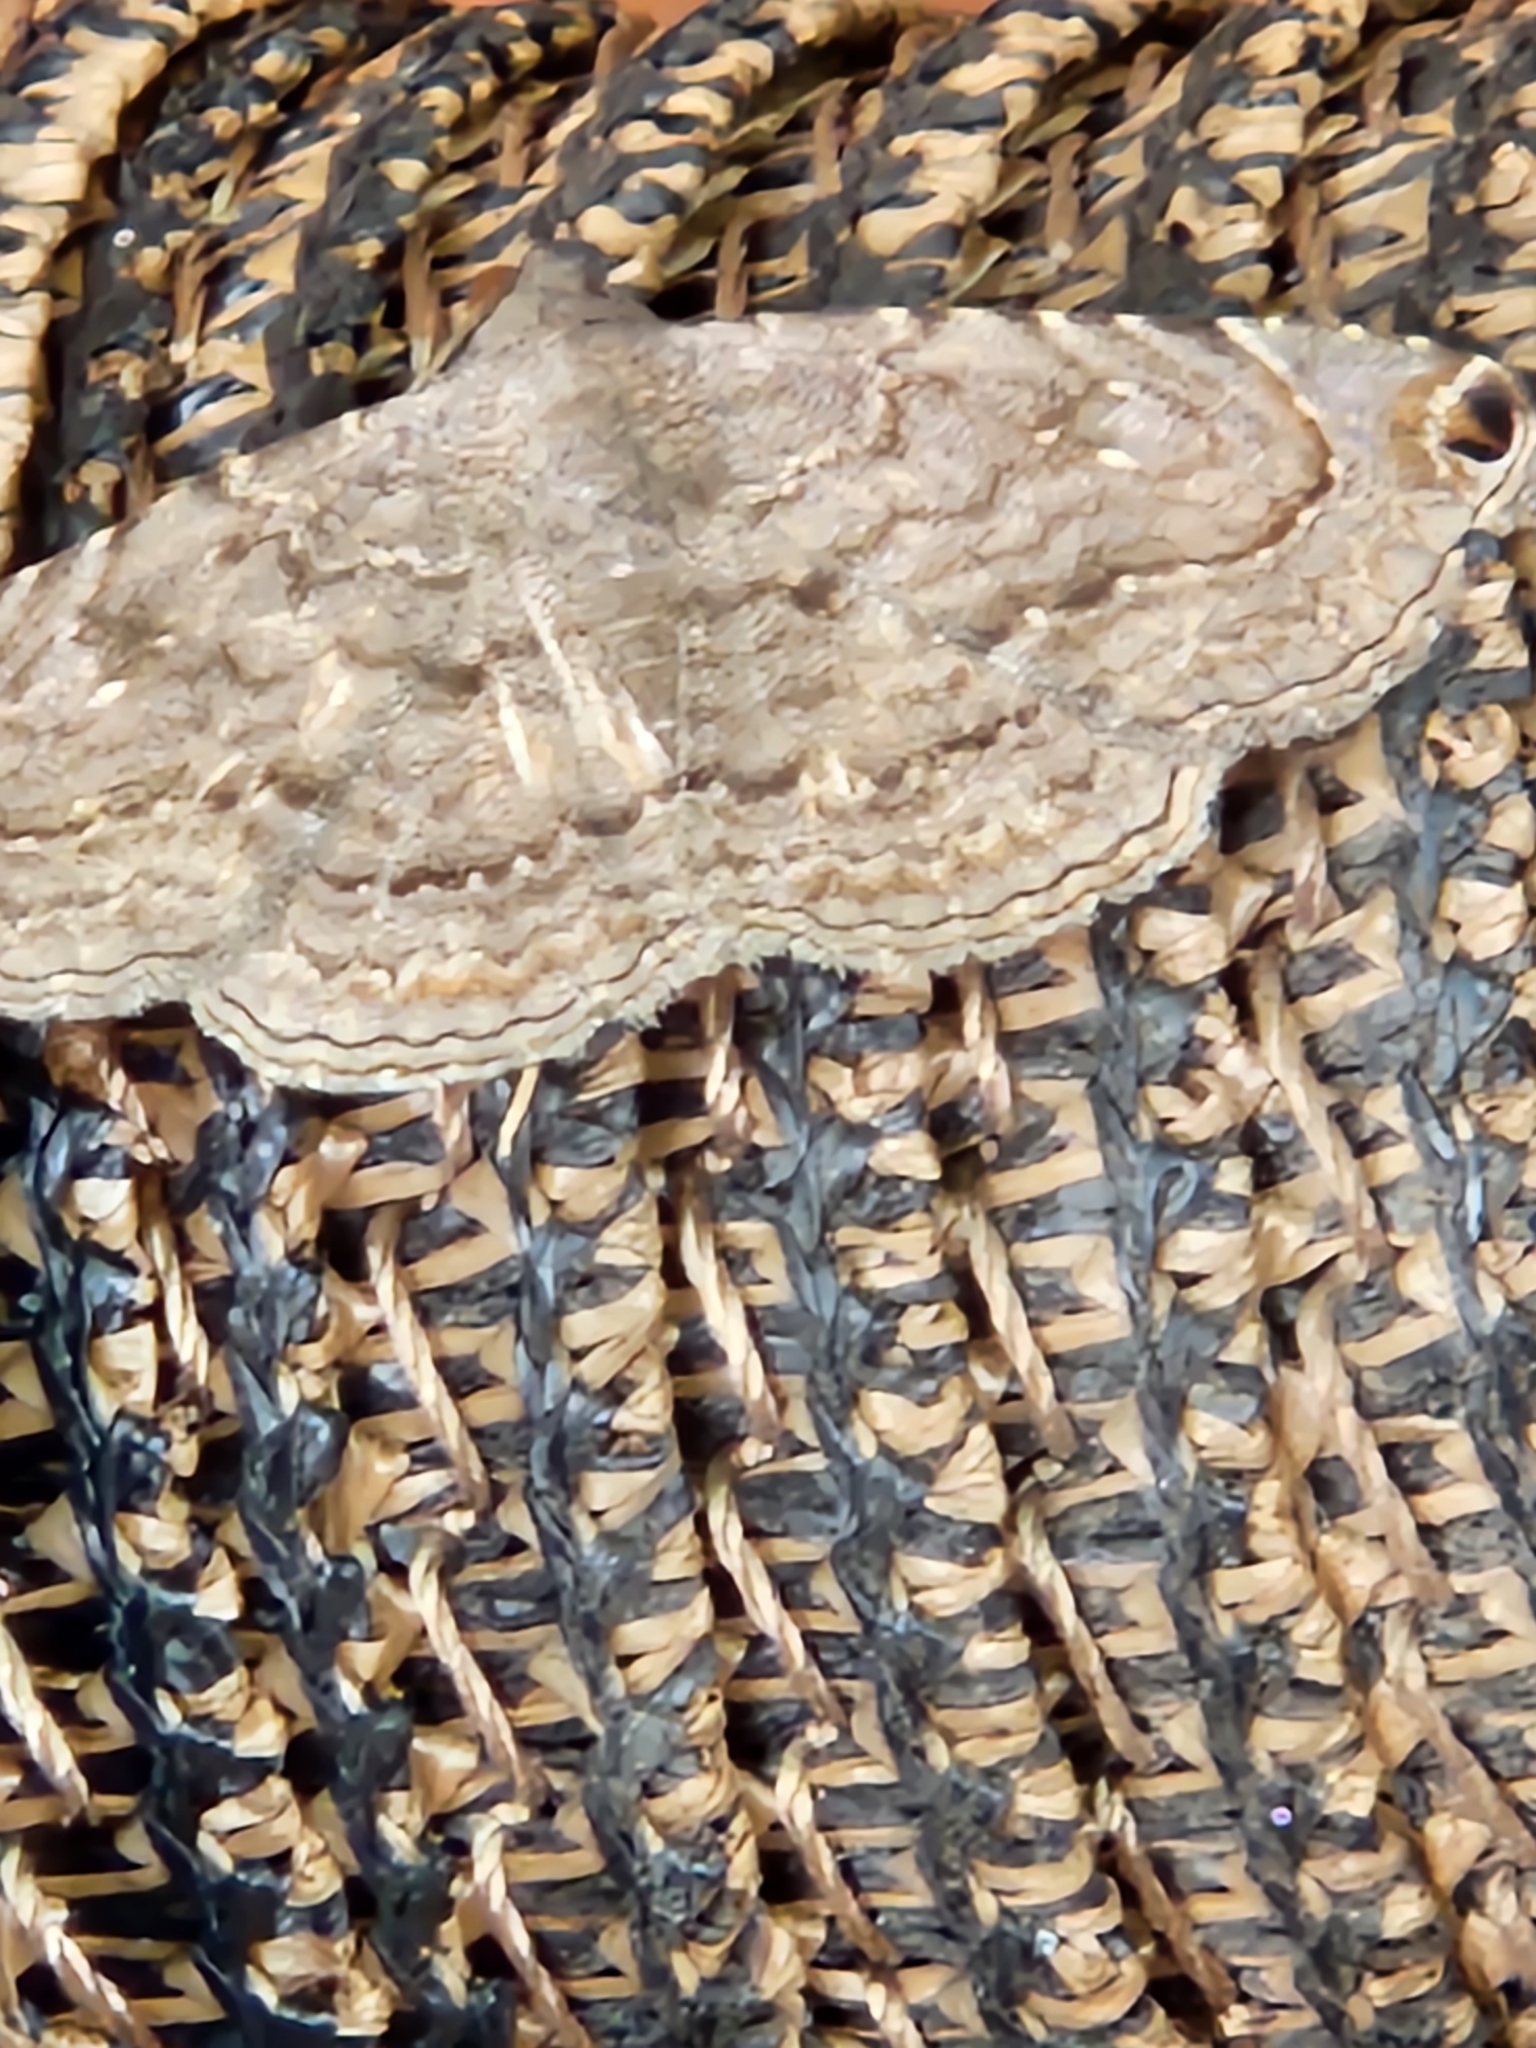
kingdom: Animalia
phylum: Arthropoda
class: Insecta
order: Lepidoptera
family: Erebidae
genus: Toxonprucha
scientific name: Toxonprucha pardalis
